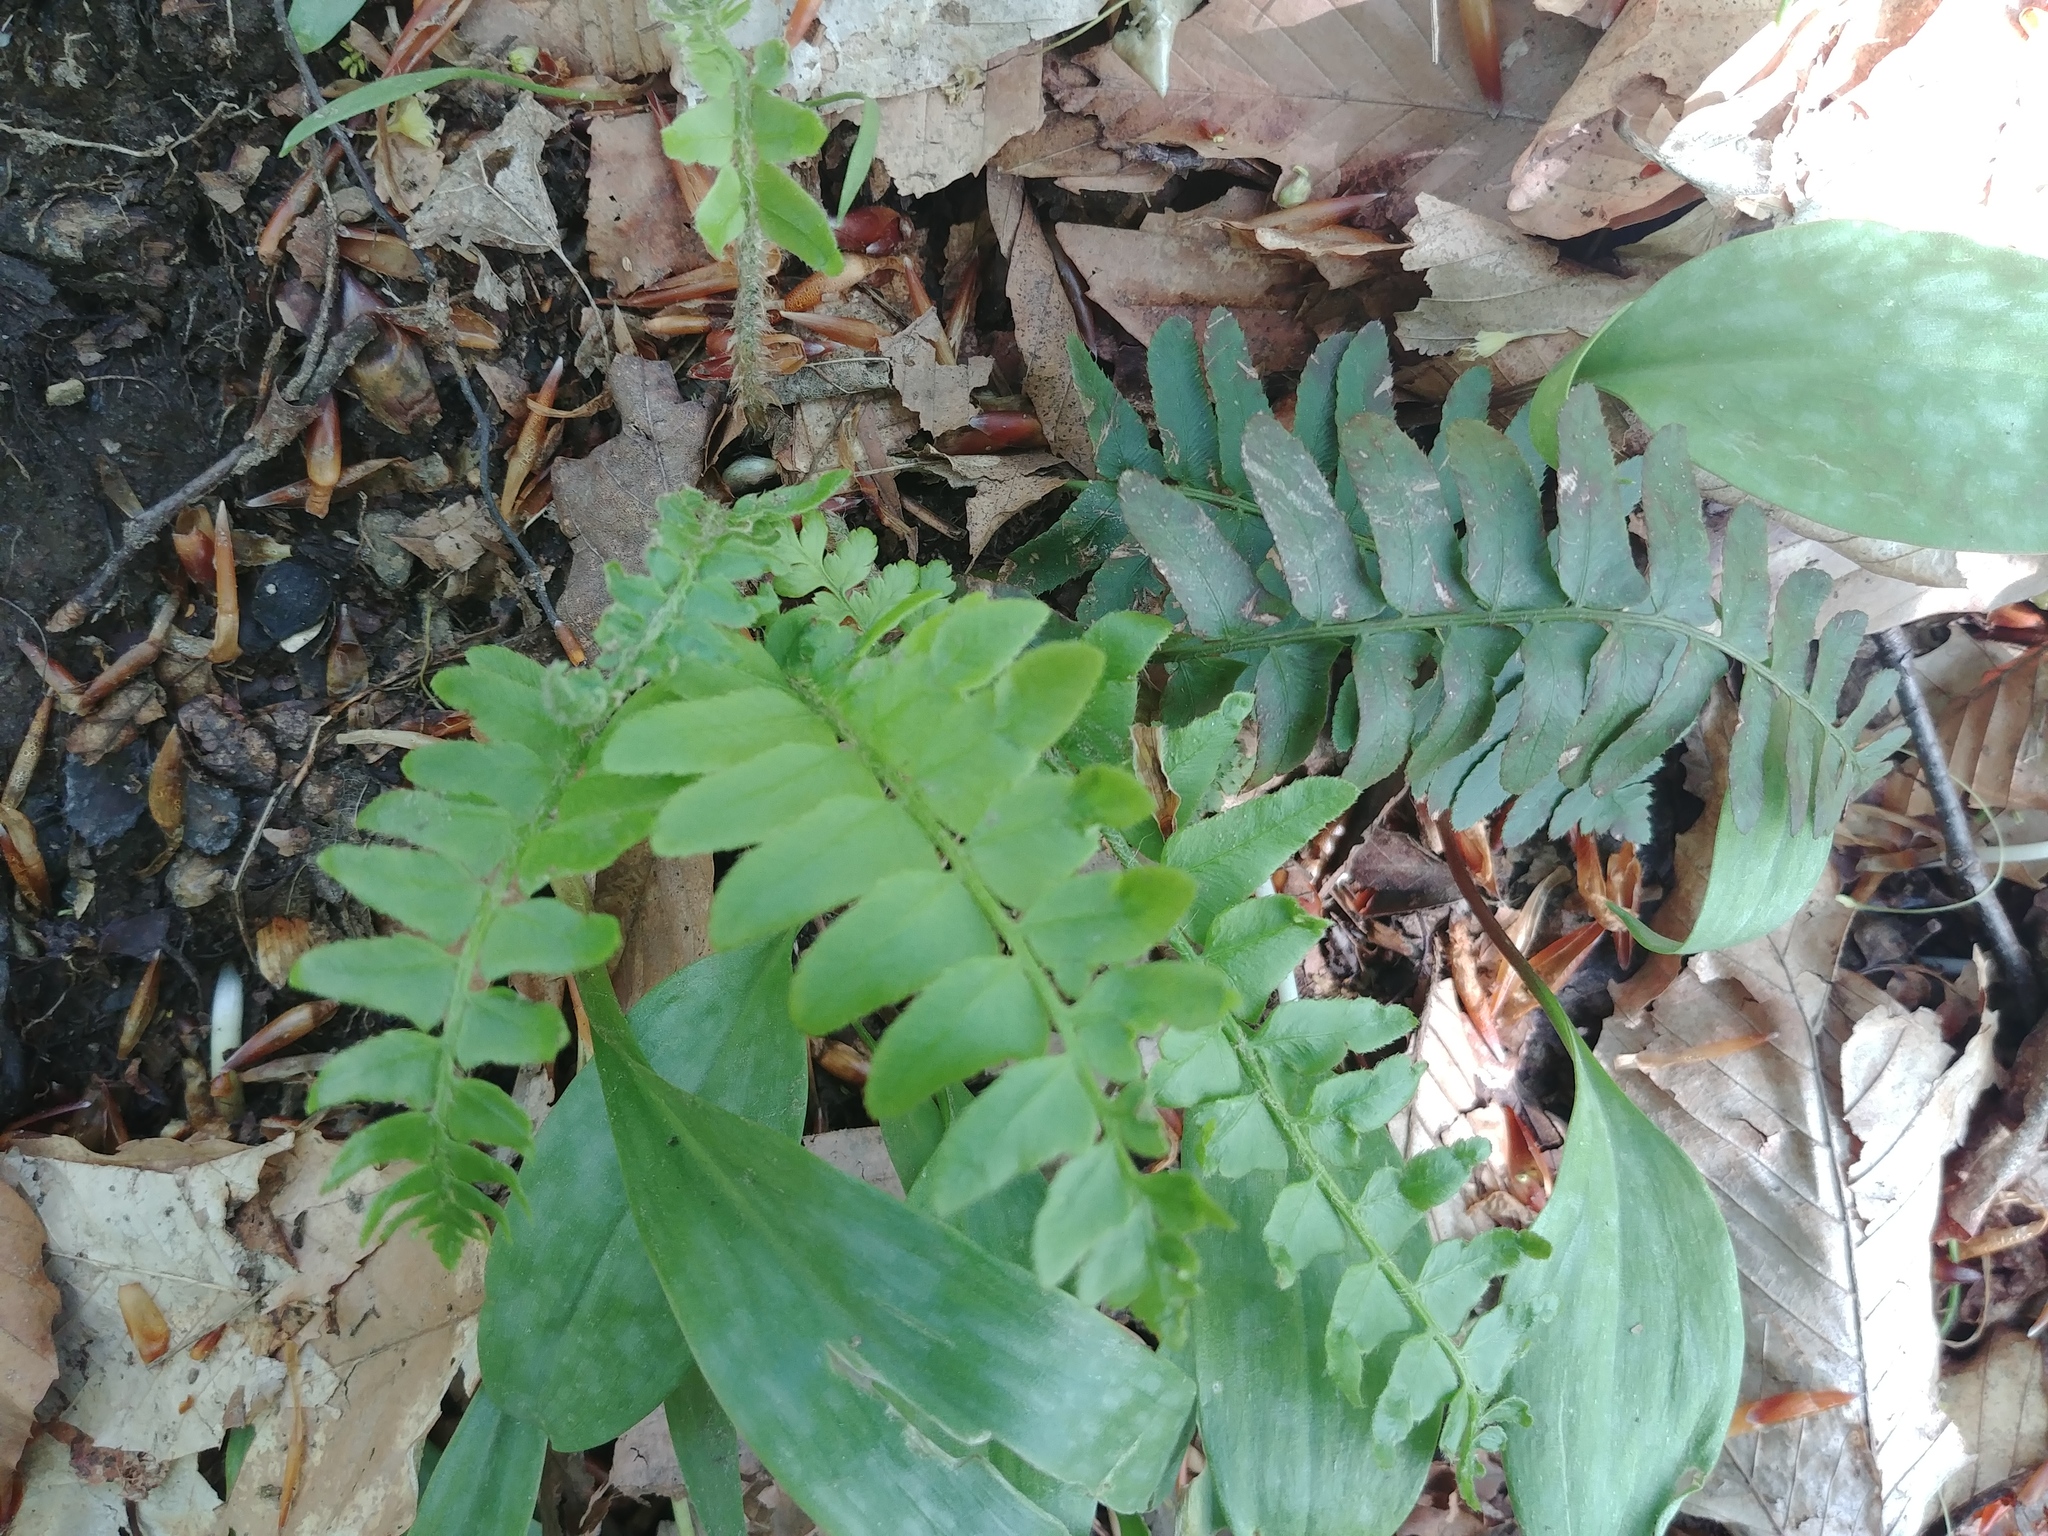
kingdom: Plantae
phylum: Tracheophyta
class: Polypodiopsida
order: Polypodiales
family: Dryopteridaceae
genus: Polystichum
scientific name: Polystichum acrostichoides
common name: Christmas fern
